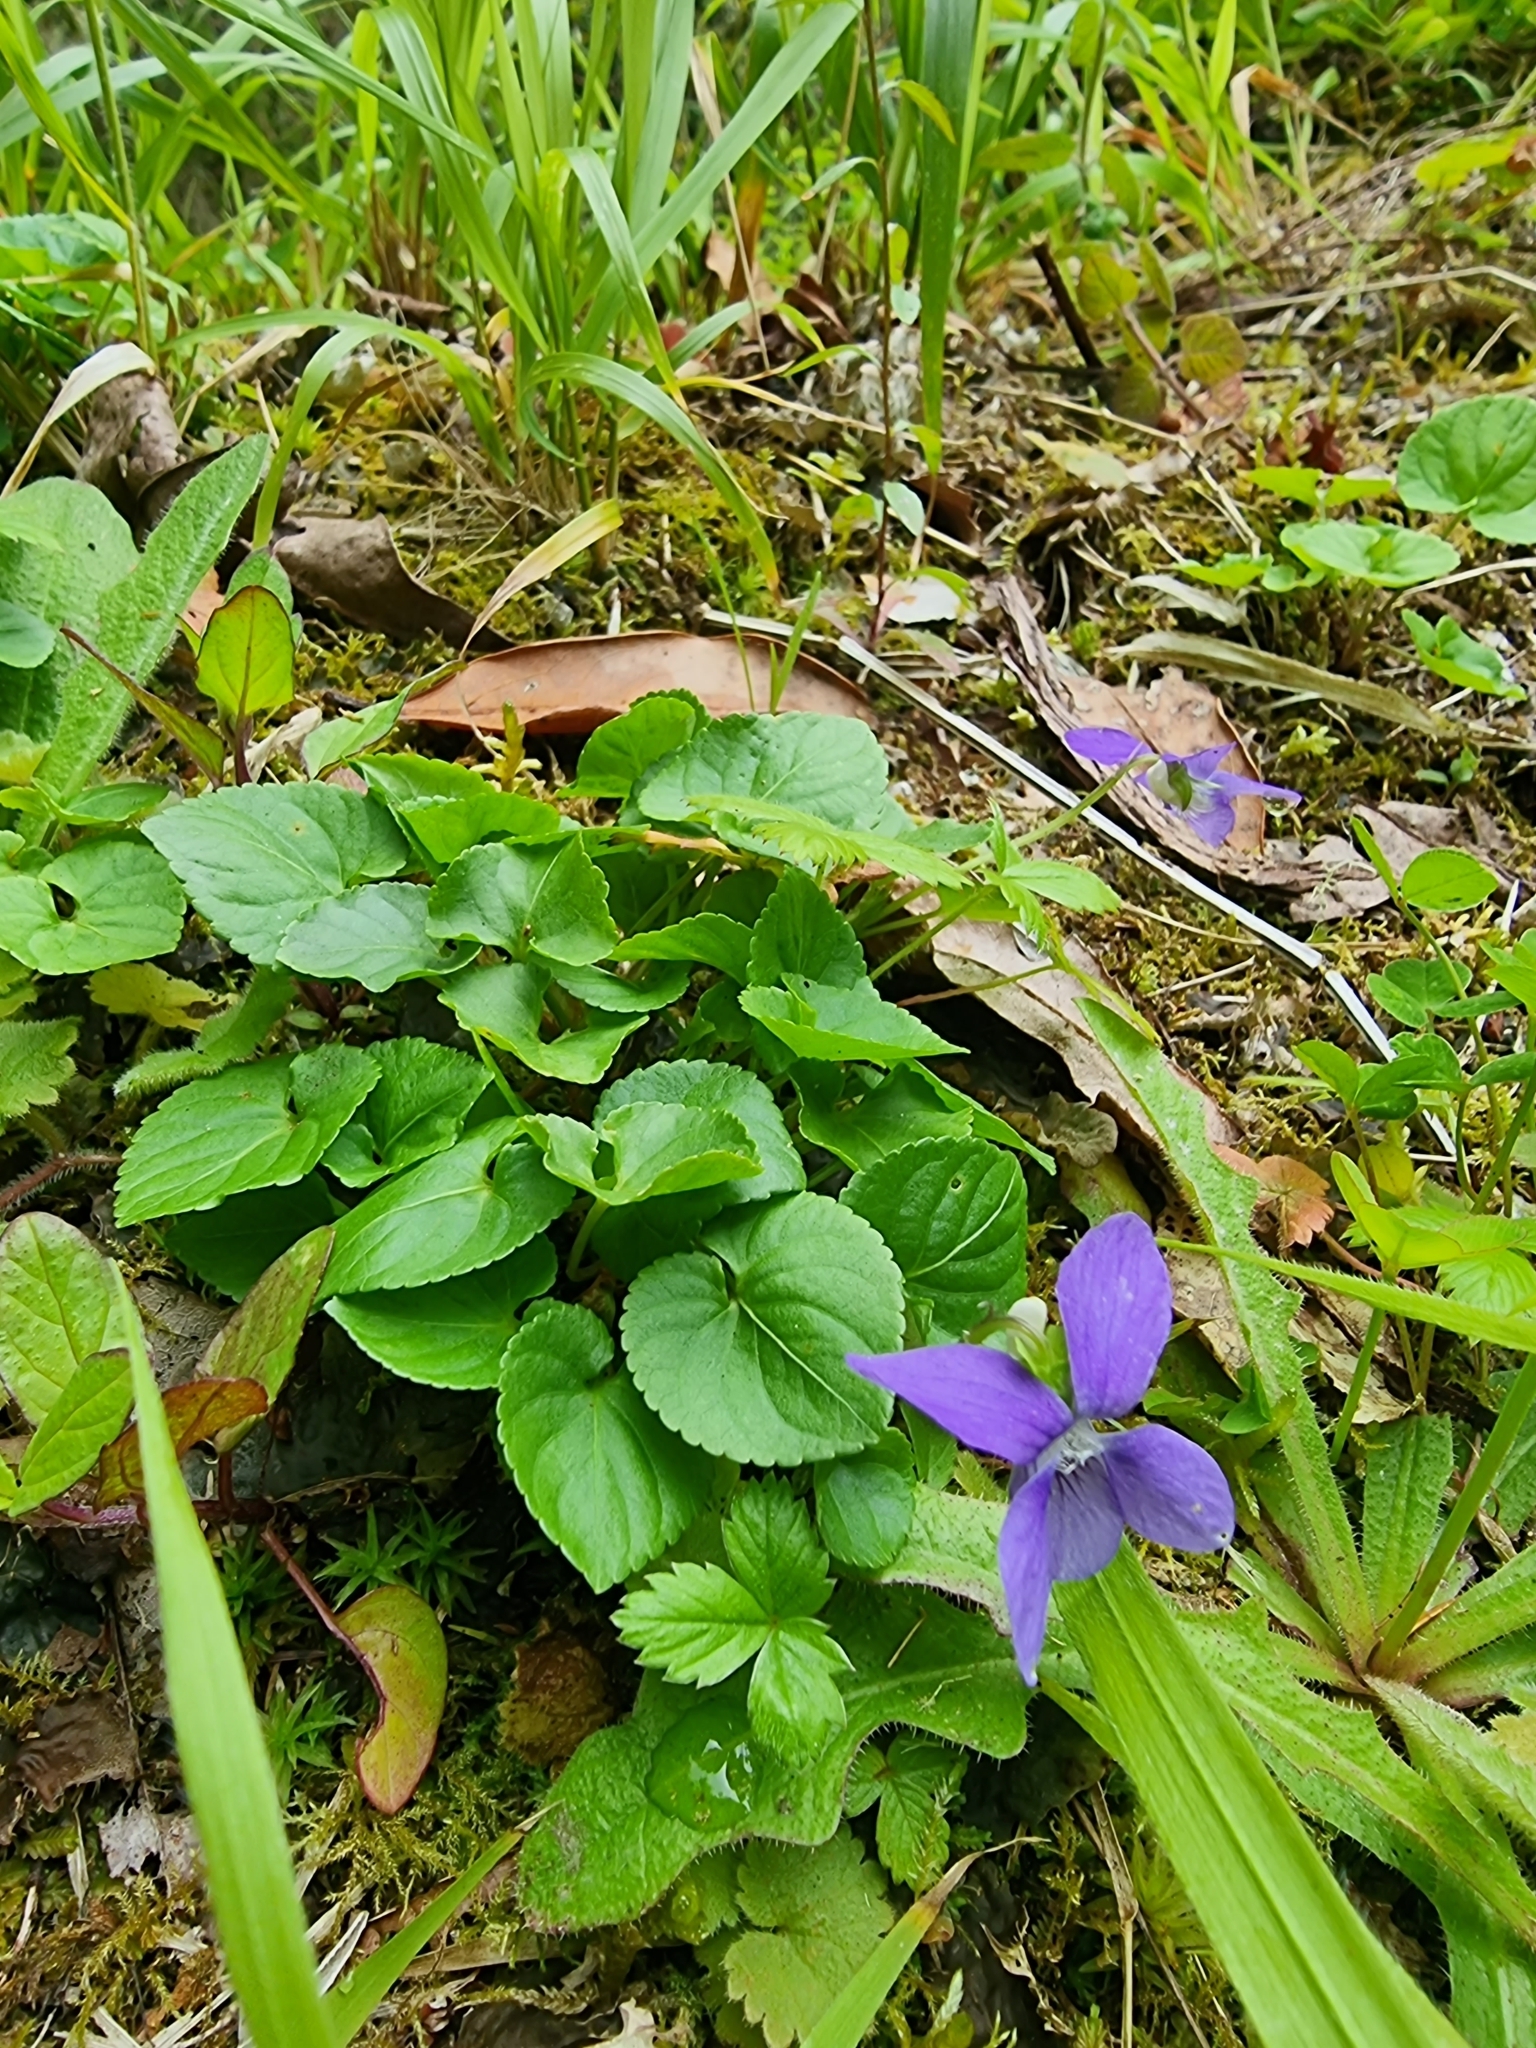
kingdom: Plantae
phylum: Tracheophyta
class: Magnoliopsida
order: Malpighiales
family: Violaceae
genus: Viola
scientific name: Viola riviniana
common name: Common dog-violet
